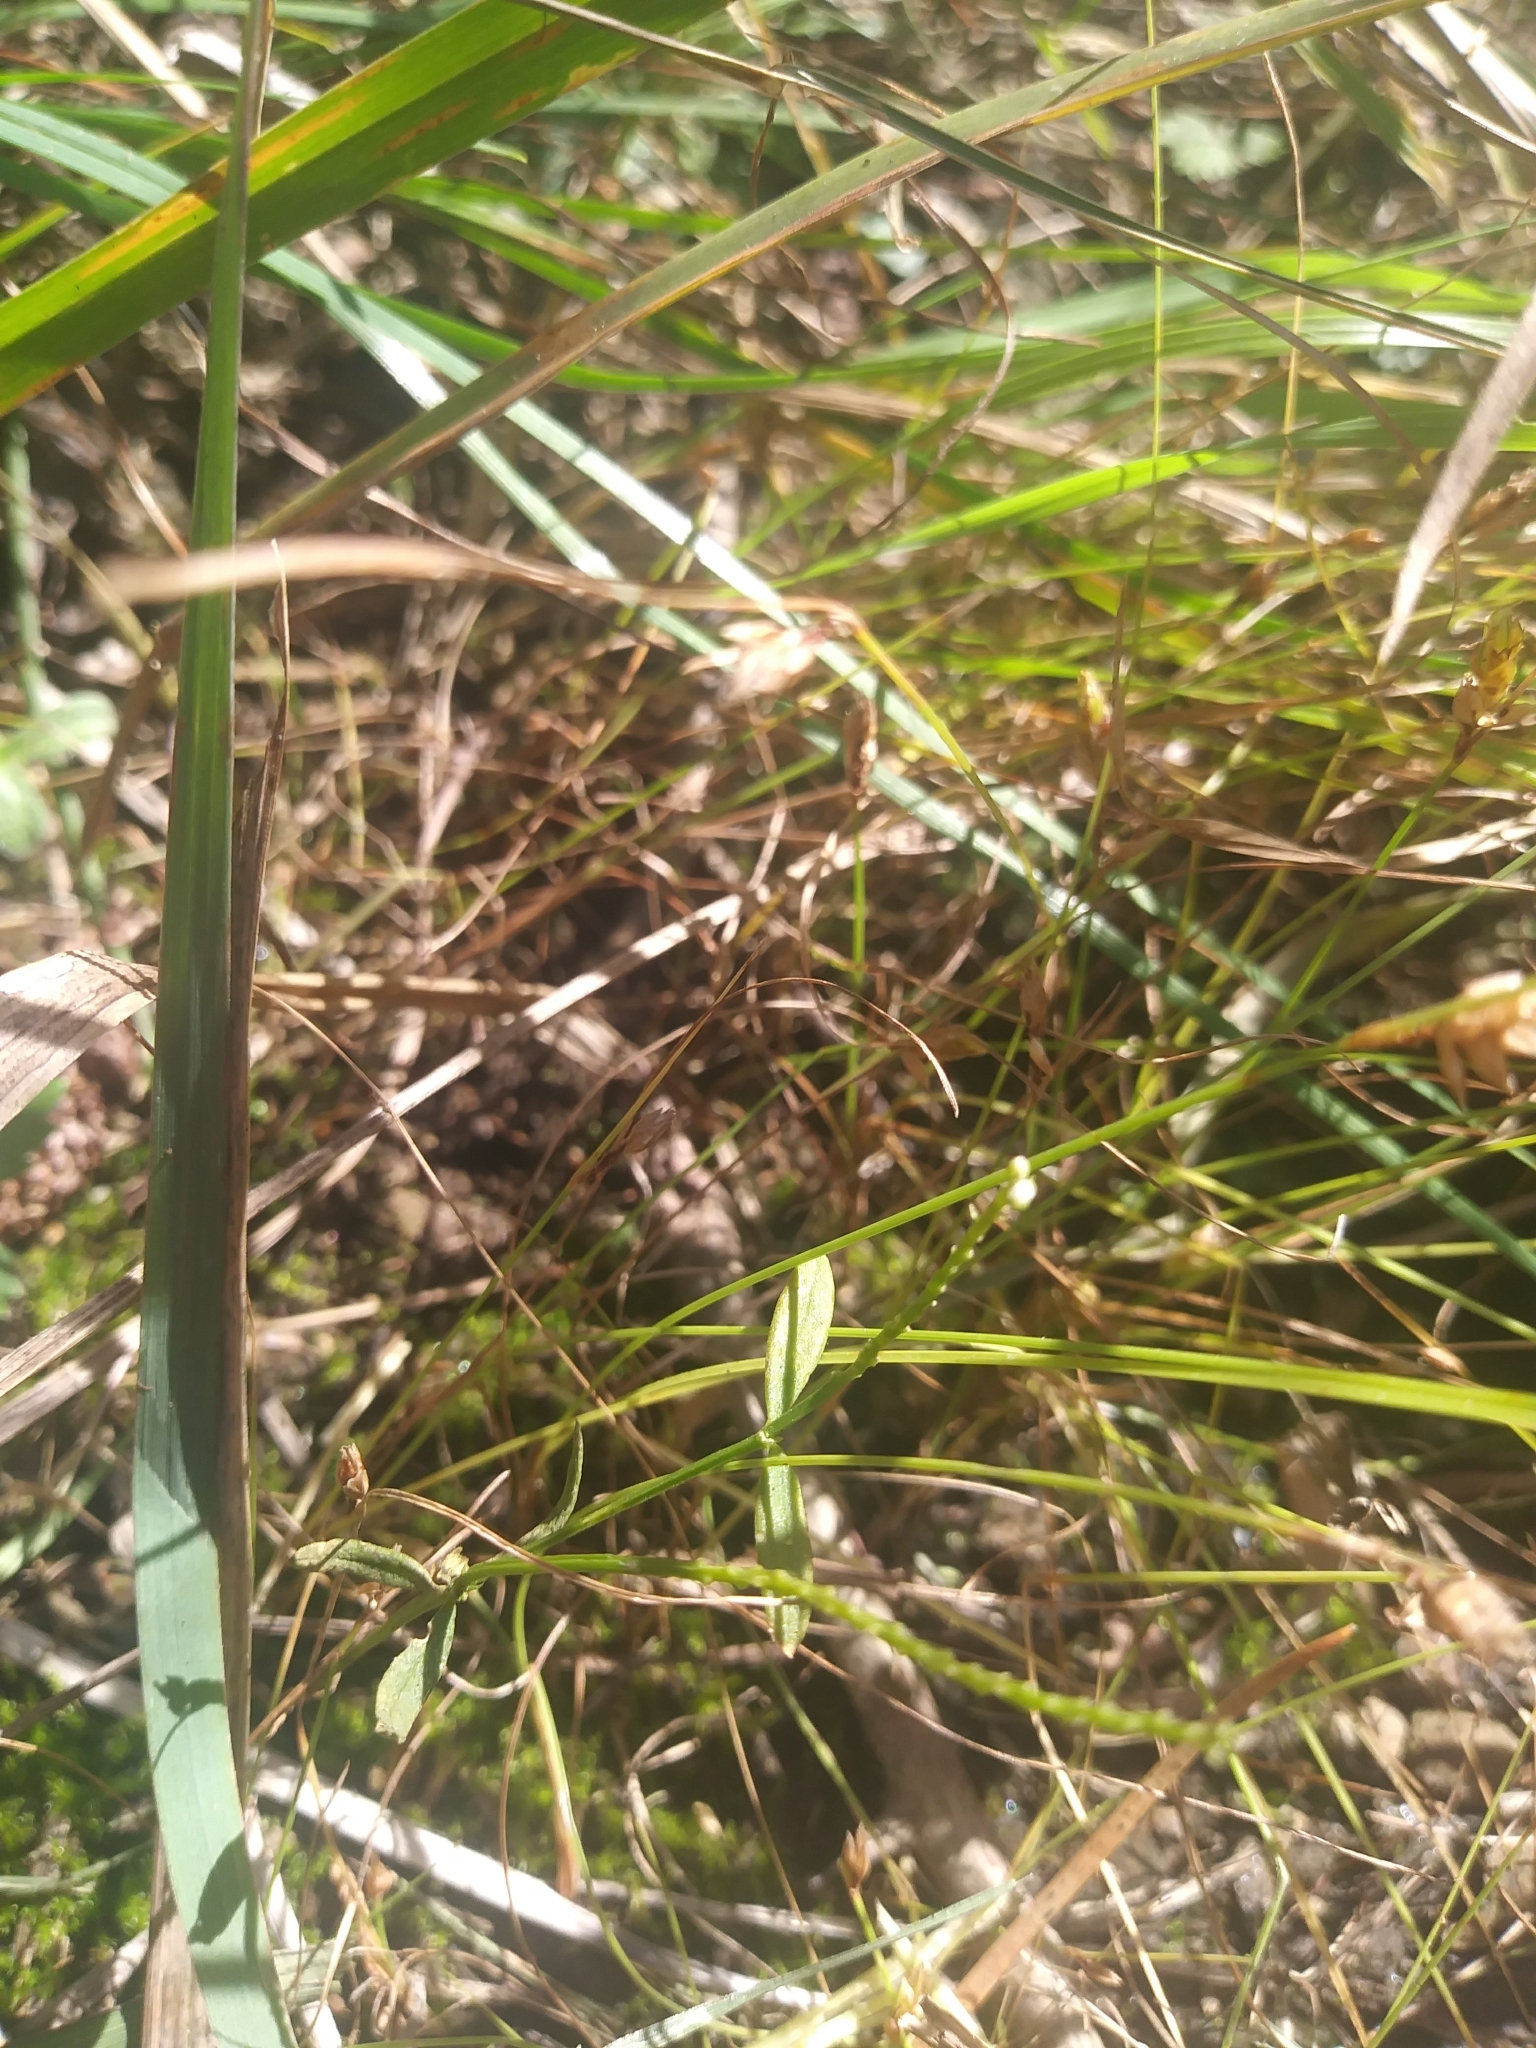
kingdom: Plantae
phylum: Tracheophyta
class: Magnoliopsida
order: Fabales
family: Polygalaceae
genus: Polygala
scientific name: Polygala verticillata
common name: Whorl milkwort
